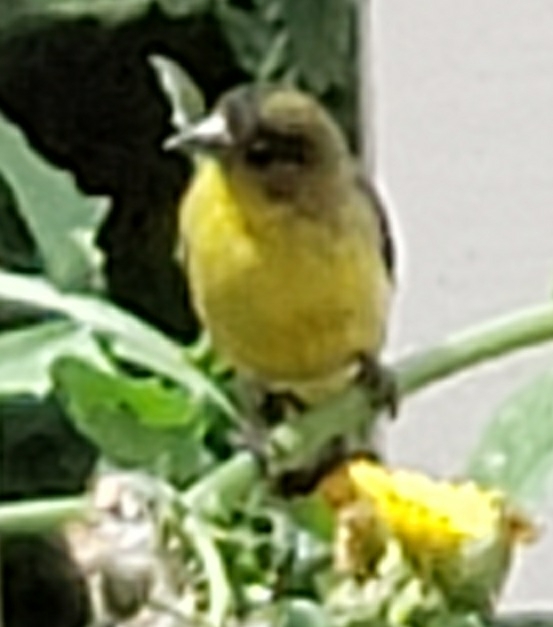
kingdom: Animalia
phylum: Chordata
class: Aves
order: Passeriformes
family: Fringillidae
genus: Spinus
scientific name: Spinus psaltria
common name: Lesser goldfinch
